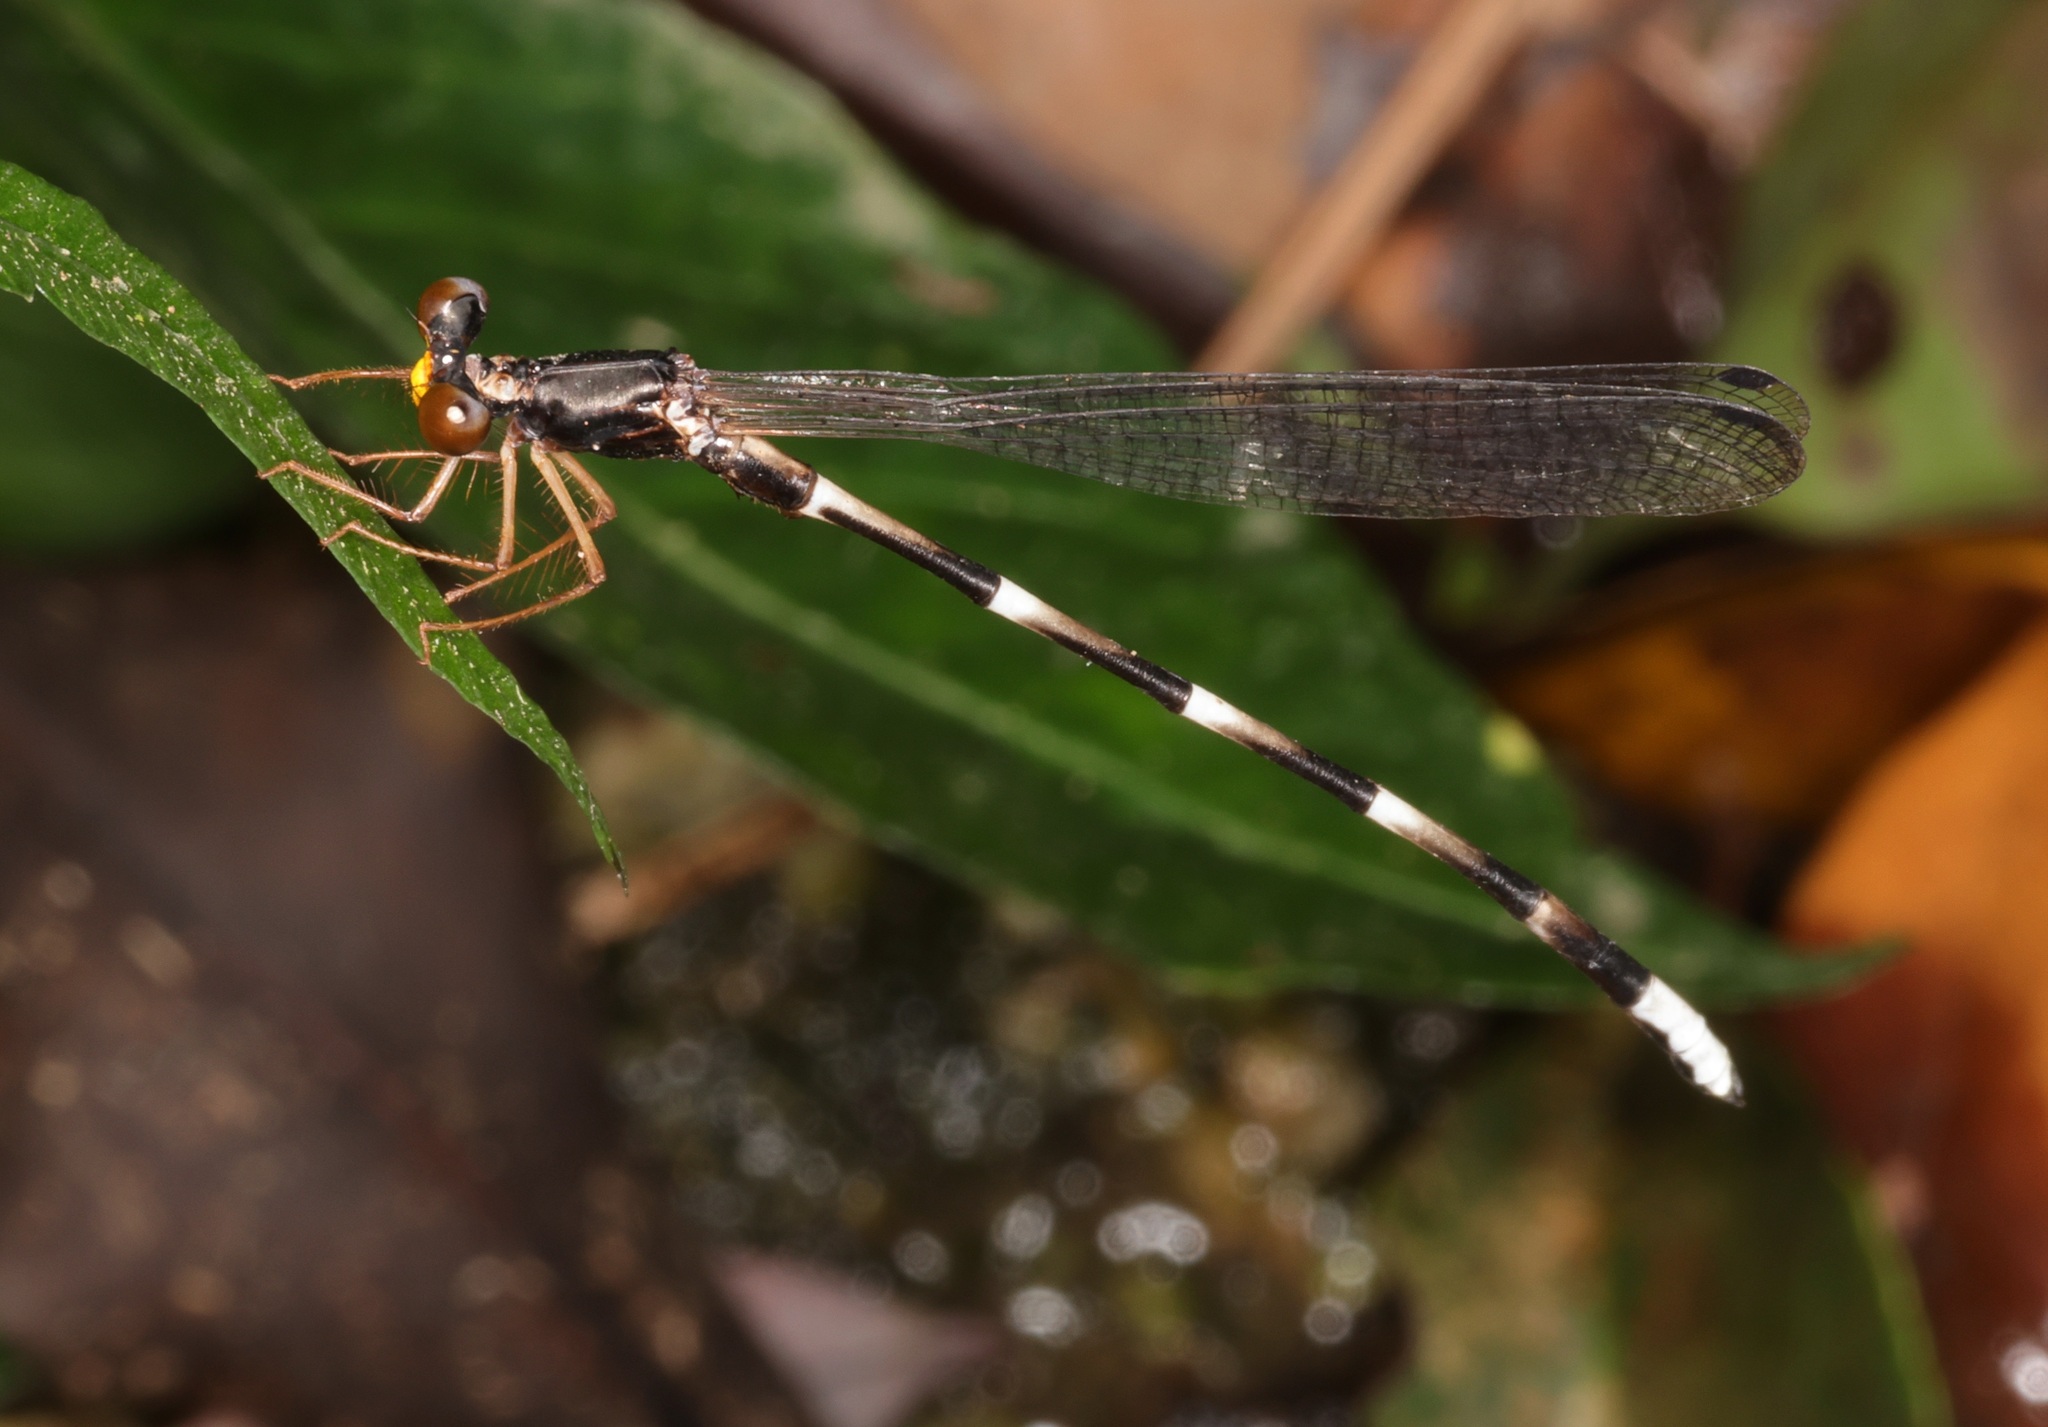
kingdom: Animalia
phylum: Arthropoda
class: Insecta
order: Odonata
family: Thaumatoneuridae
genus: Agriomorpha
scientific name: Agriomorpha fusca
